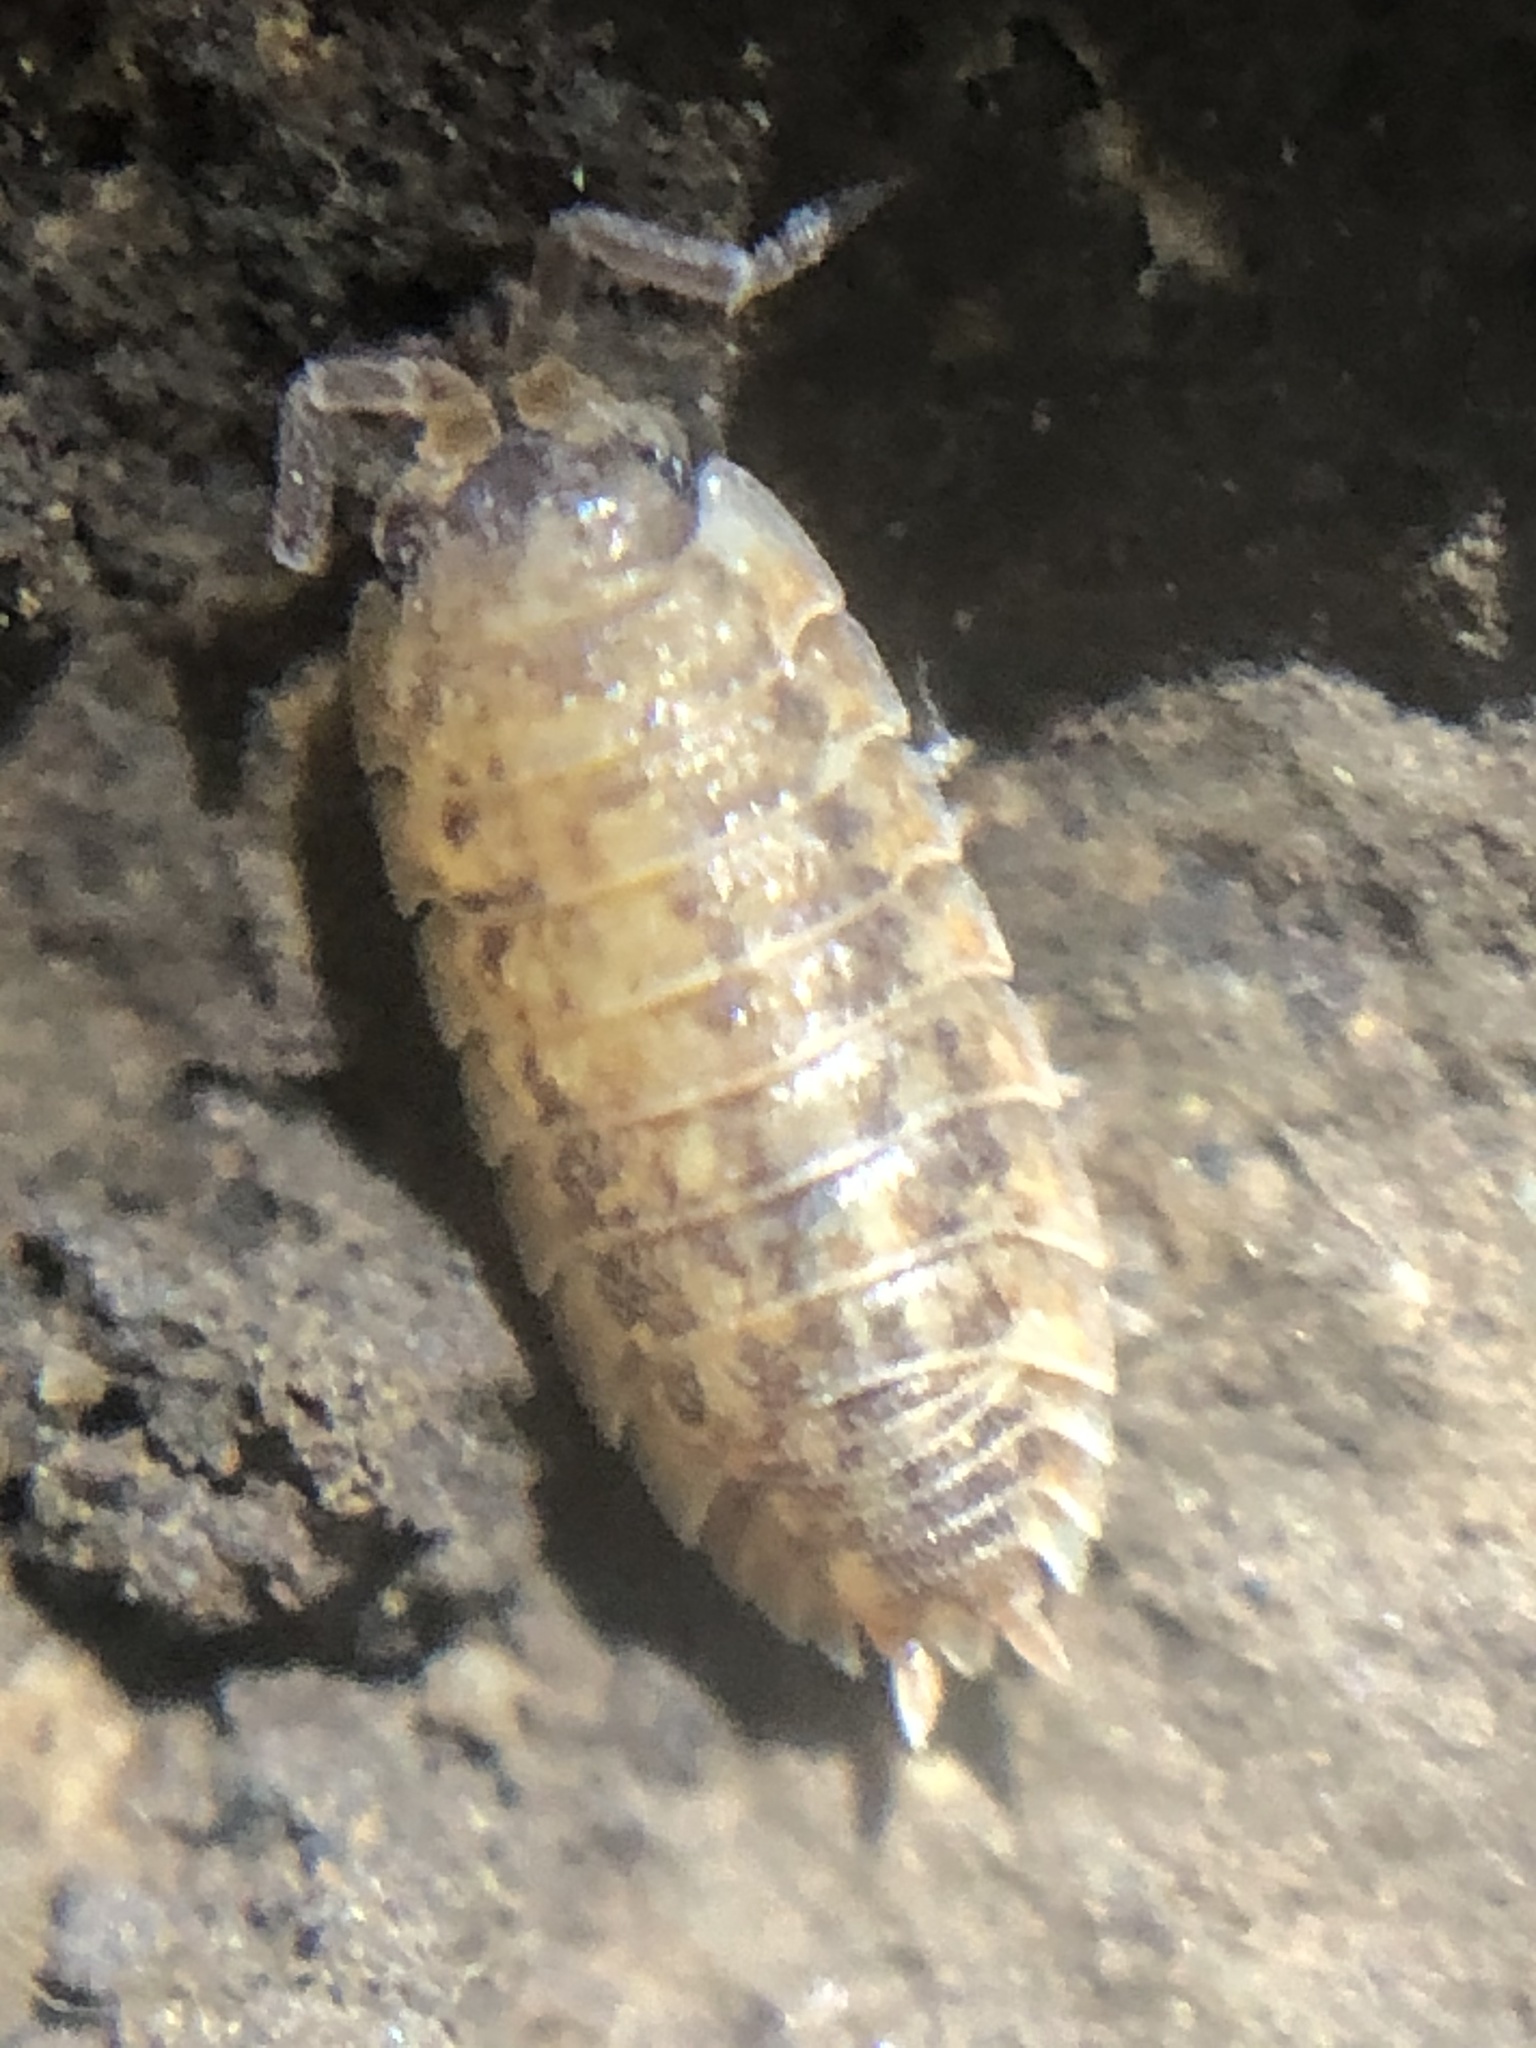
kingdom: Animalia
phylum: Arthropoda
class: Malacostraca
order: Isopoda
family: Porcellionidae
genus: Porcellio
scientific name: Porcellio scaber
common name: Common rough woodlouse
